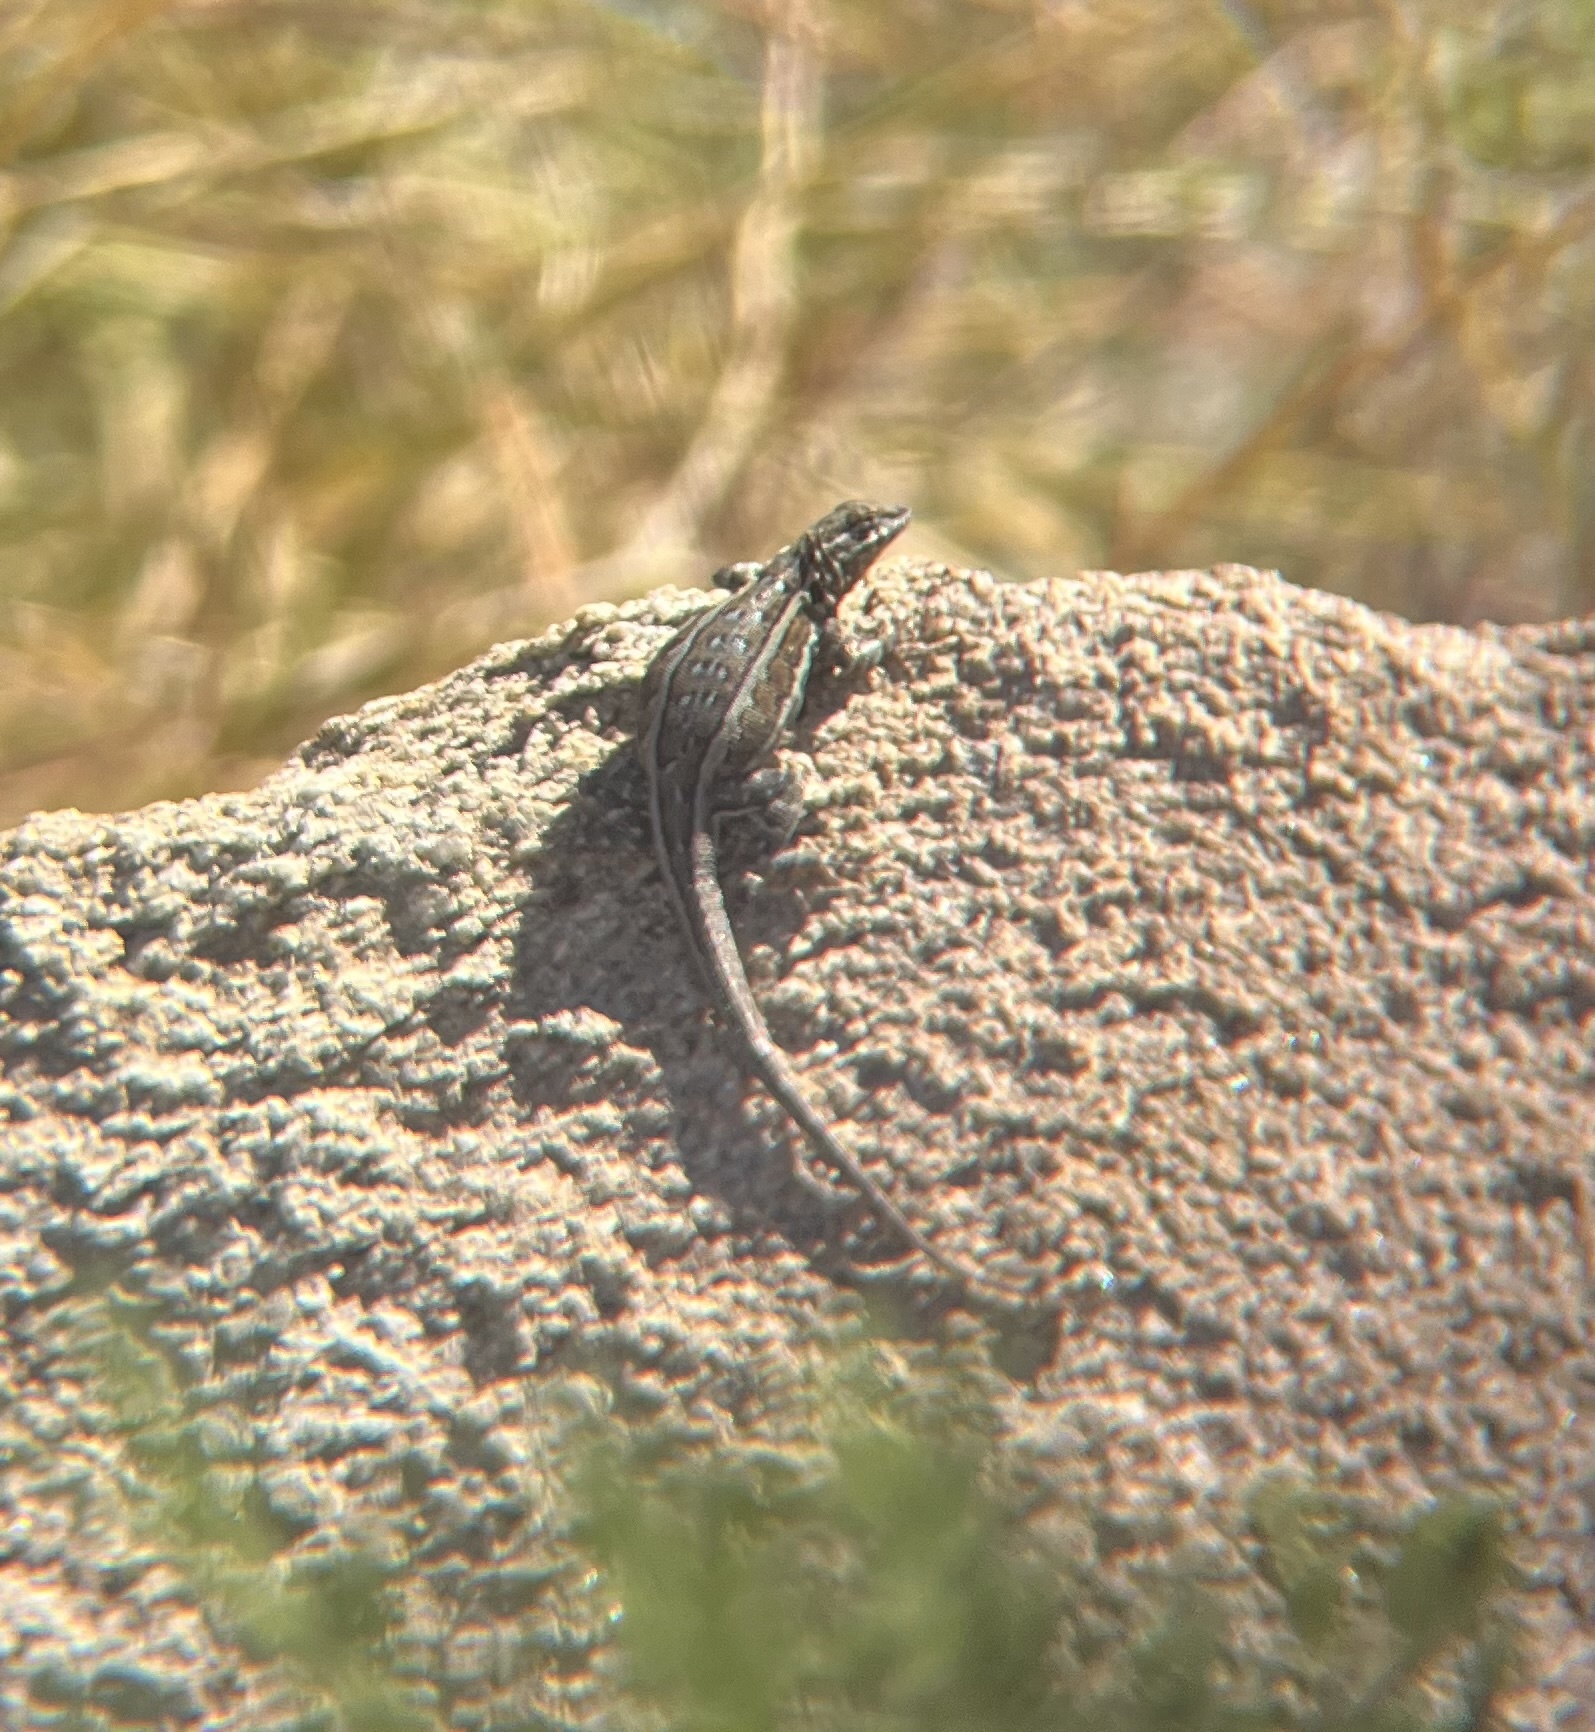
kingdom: Animalia
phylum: Chordata
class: Squamata
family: Phrynosomatidae
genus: Uta
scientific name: Uta stansburiana
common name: Side-blotched lizard
